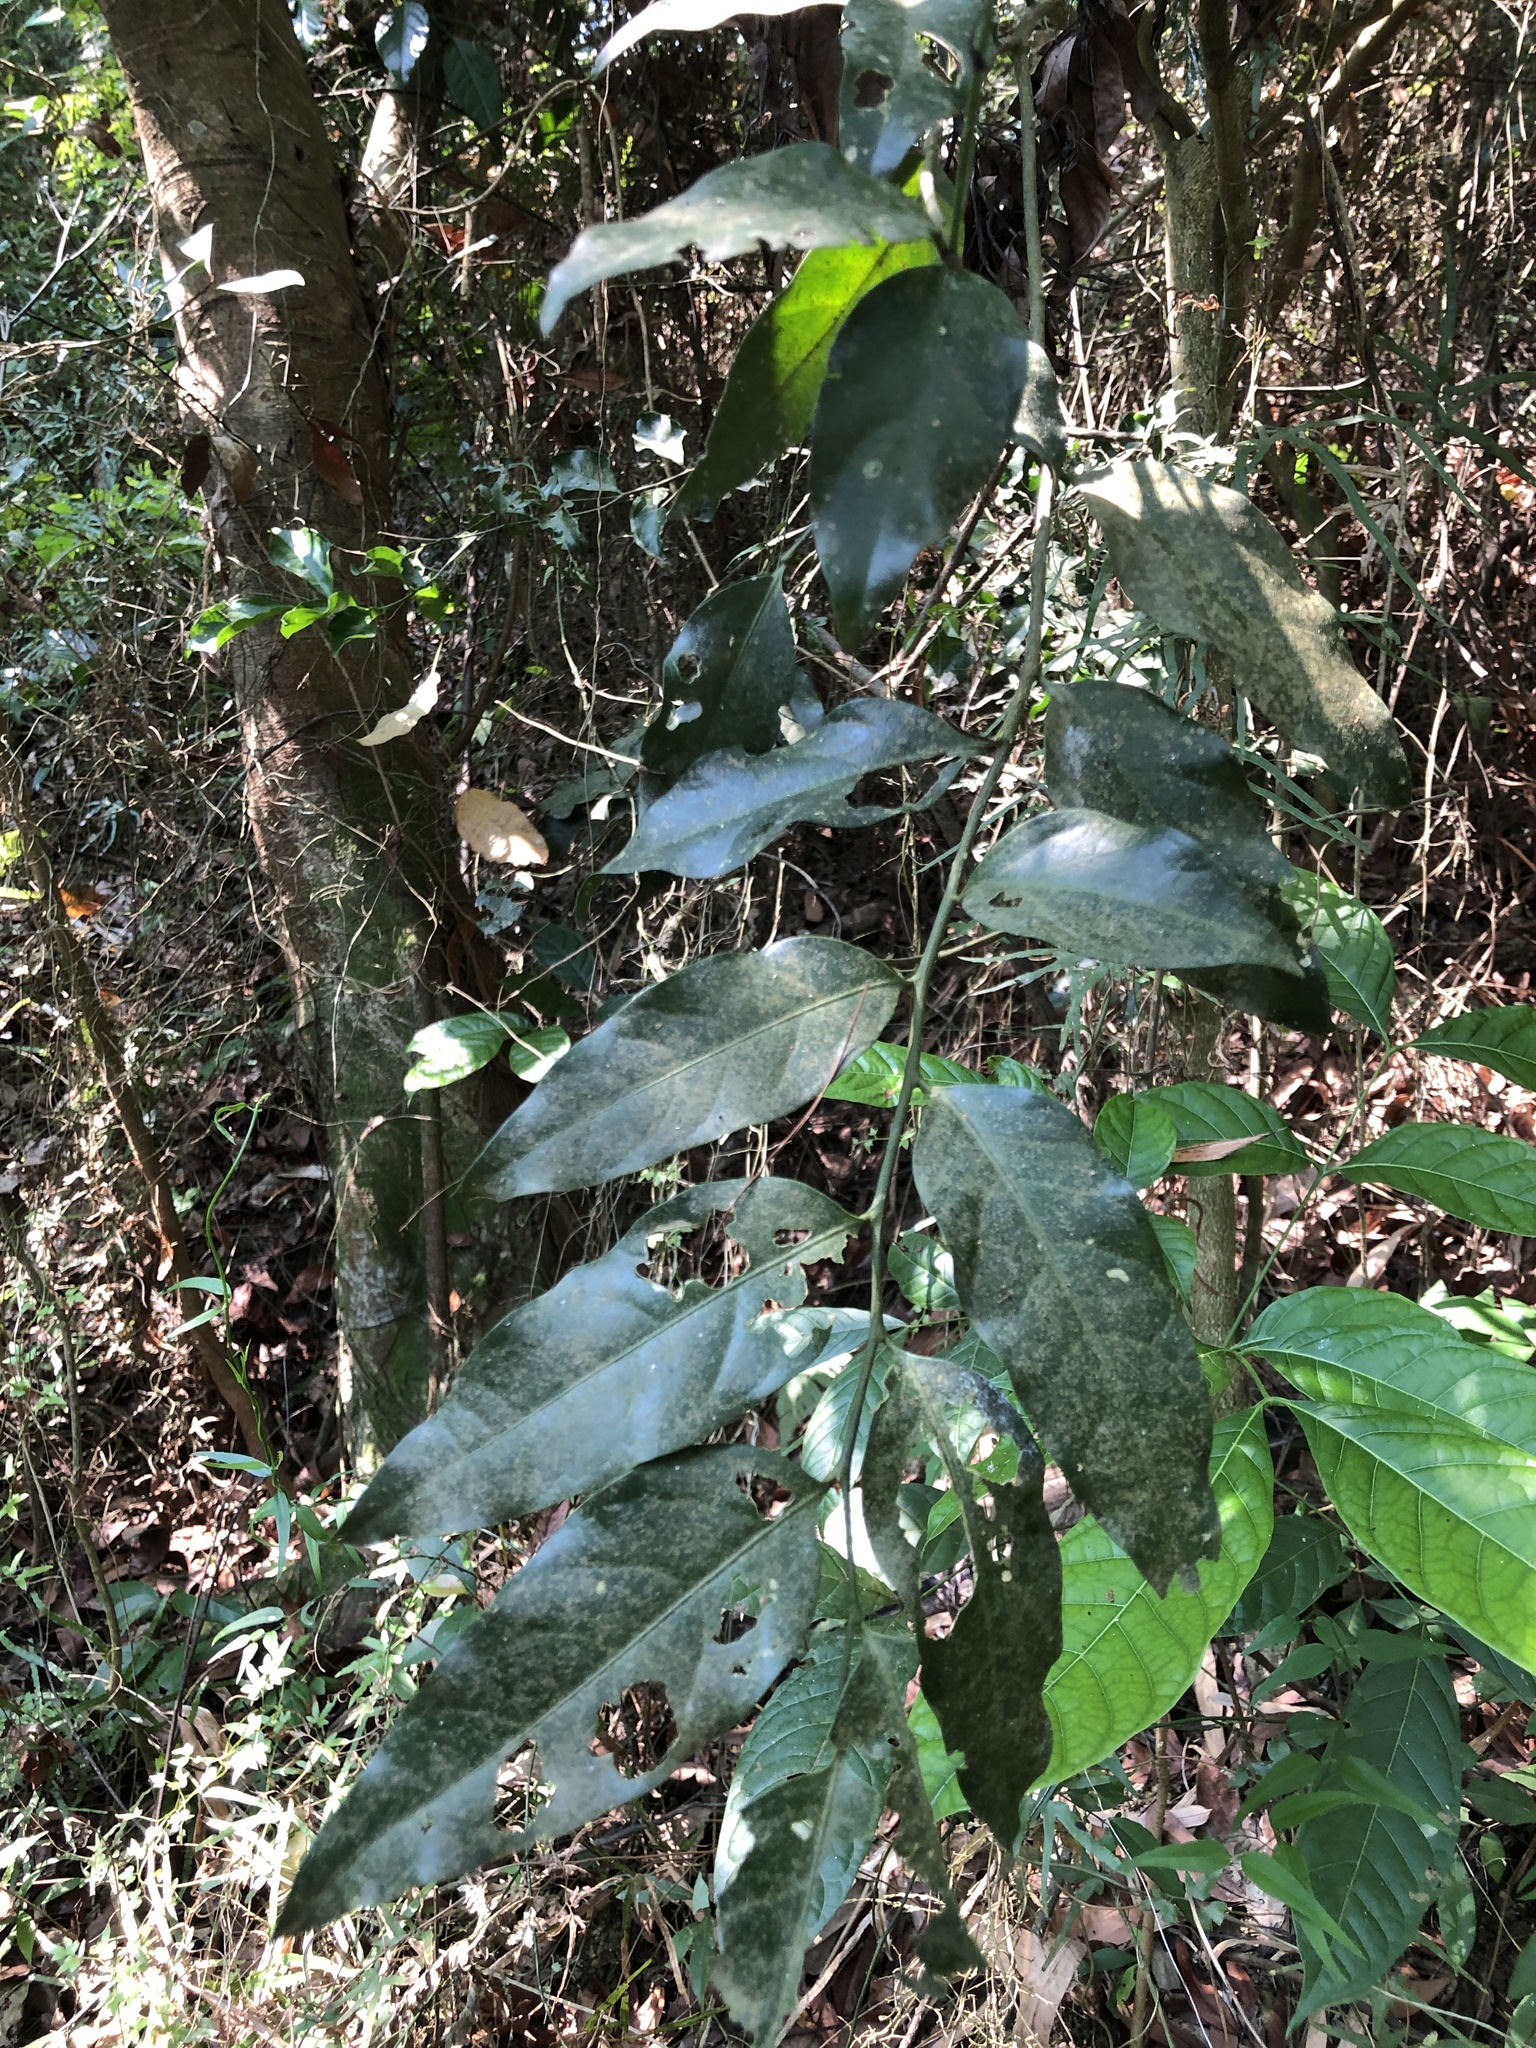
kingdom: Plantae
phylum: Tracheophyta
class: Magnoliopsida
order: Santalales
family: Opiliaceae
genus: Champereia
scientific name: Champereia manillana
